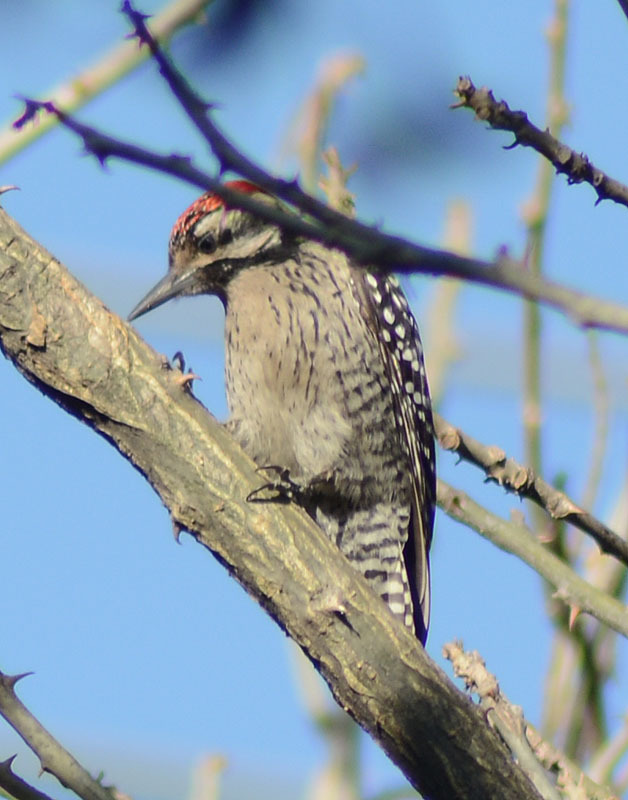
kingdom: Animalia
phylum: Chordata
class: Aves
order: Piciformes
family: Picidae
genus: Dryobates
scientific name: Dryobates scalaris
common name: Ladder-backed woodpecker
